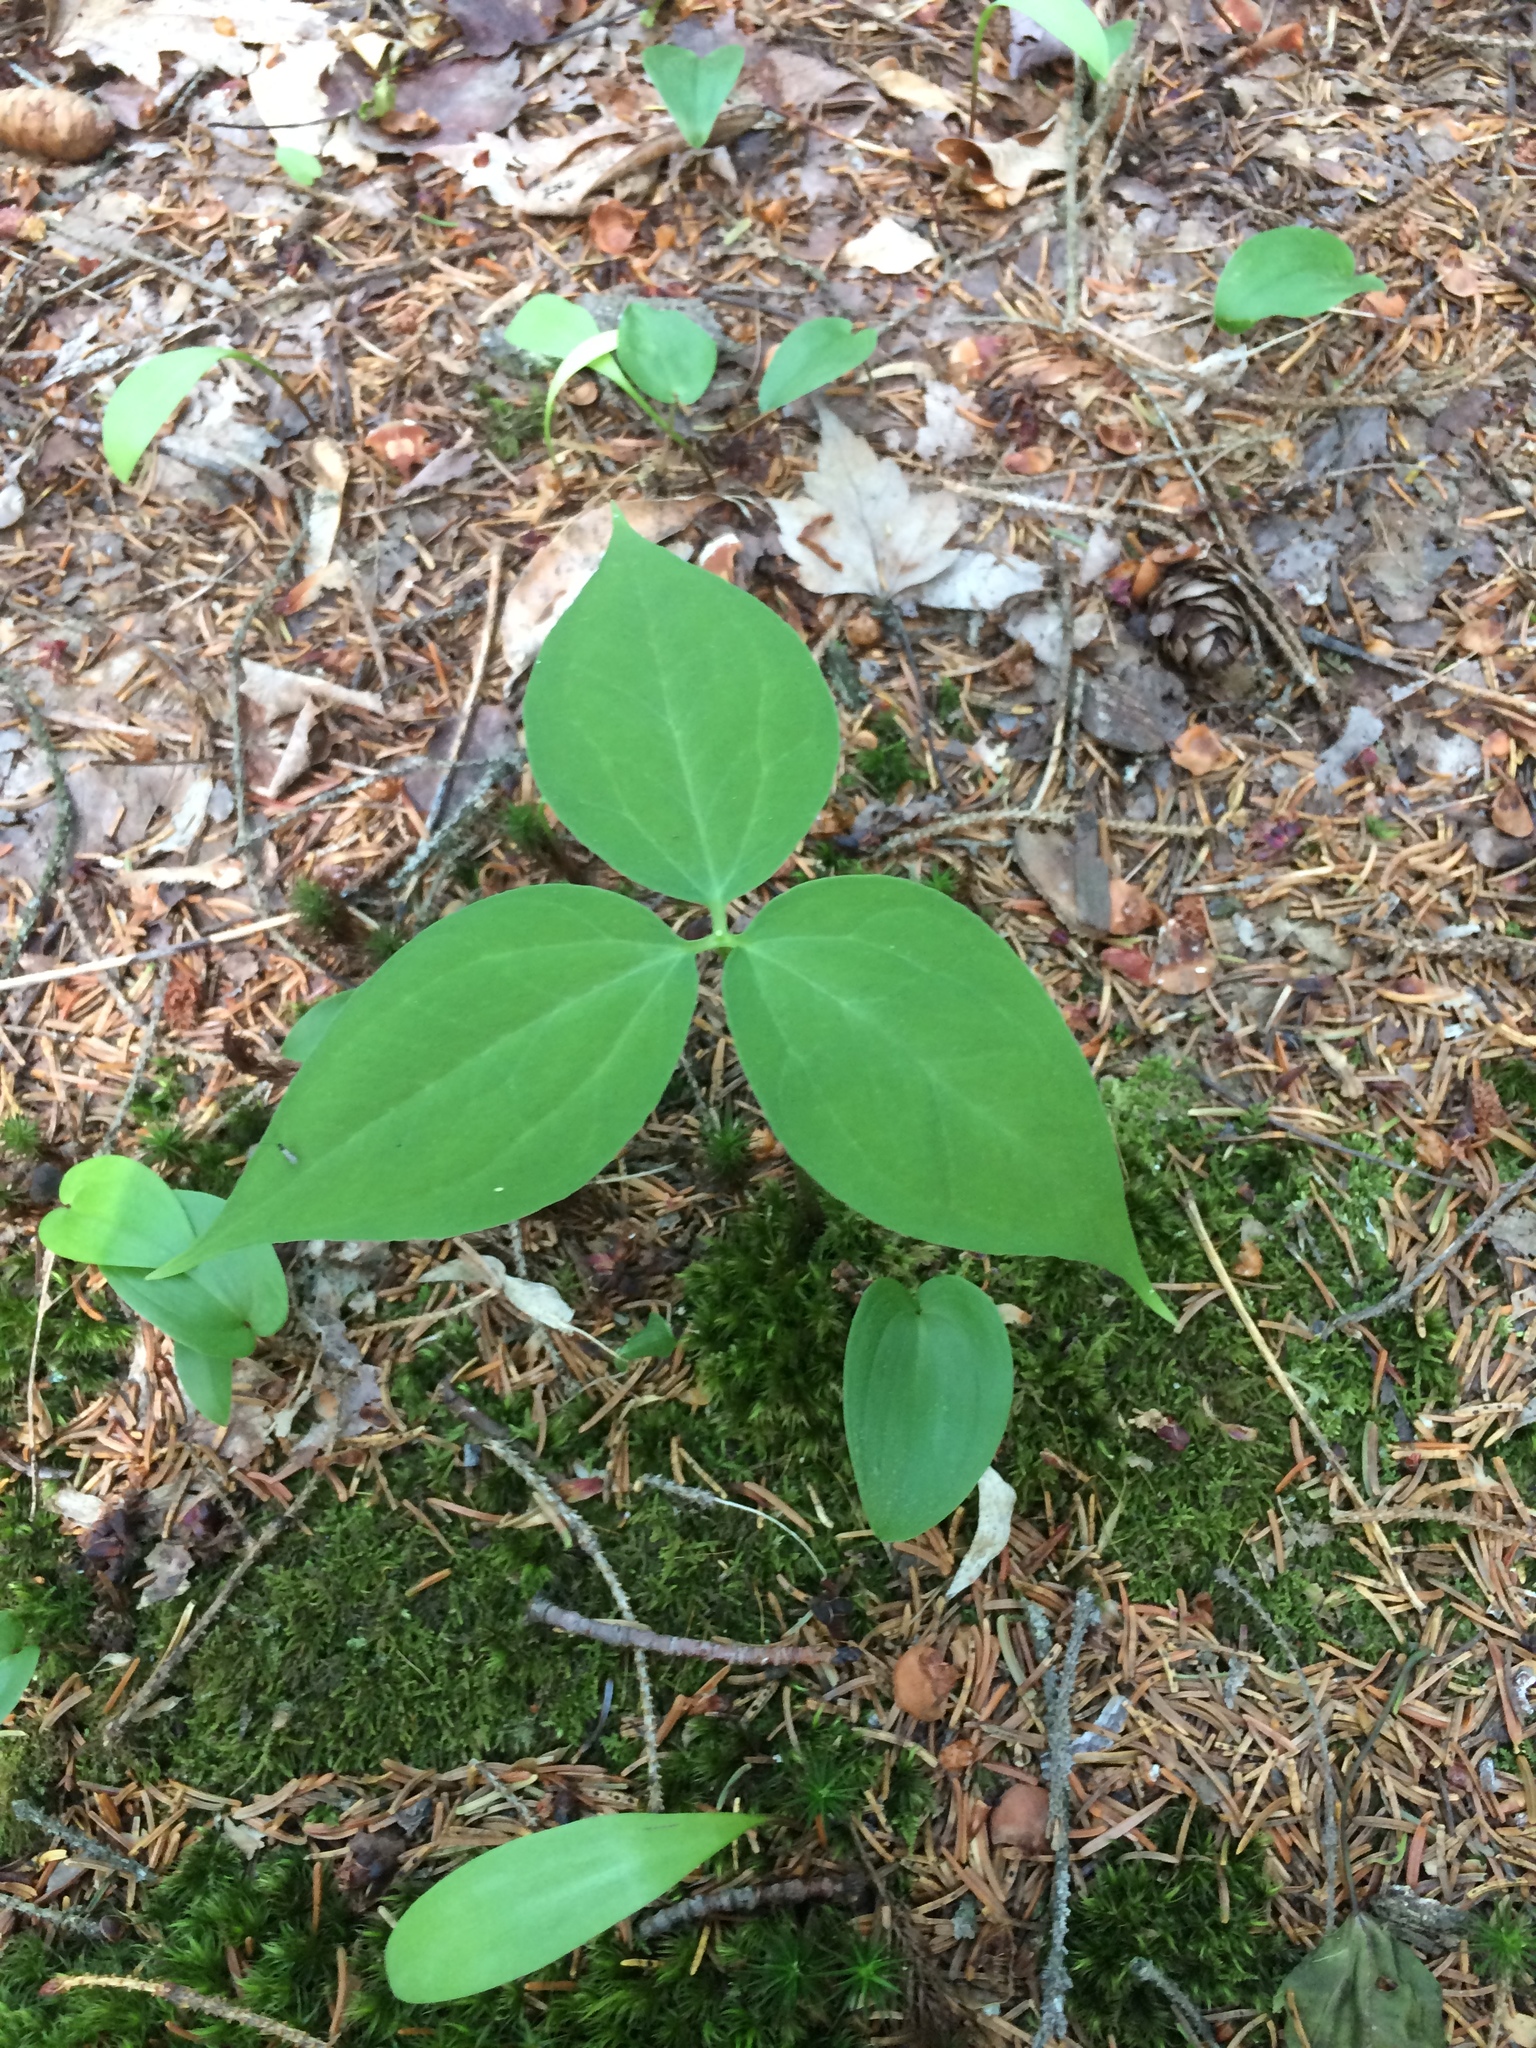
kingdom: Plantae
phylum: Tracheophyta
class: Liliopsida
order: Liliales
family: Melanthiaceae
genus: Trillium
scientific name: Trillium undulatum
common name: Paint trillium
